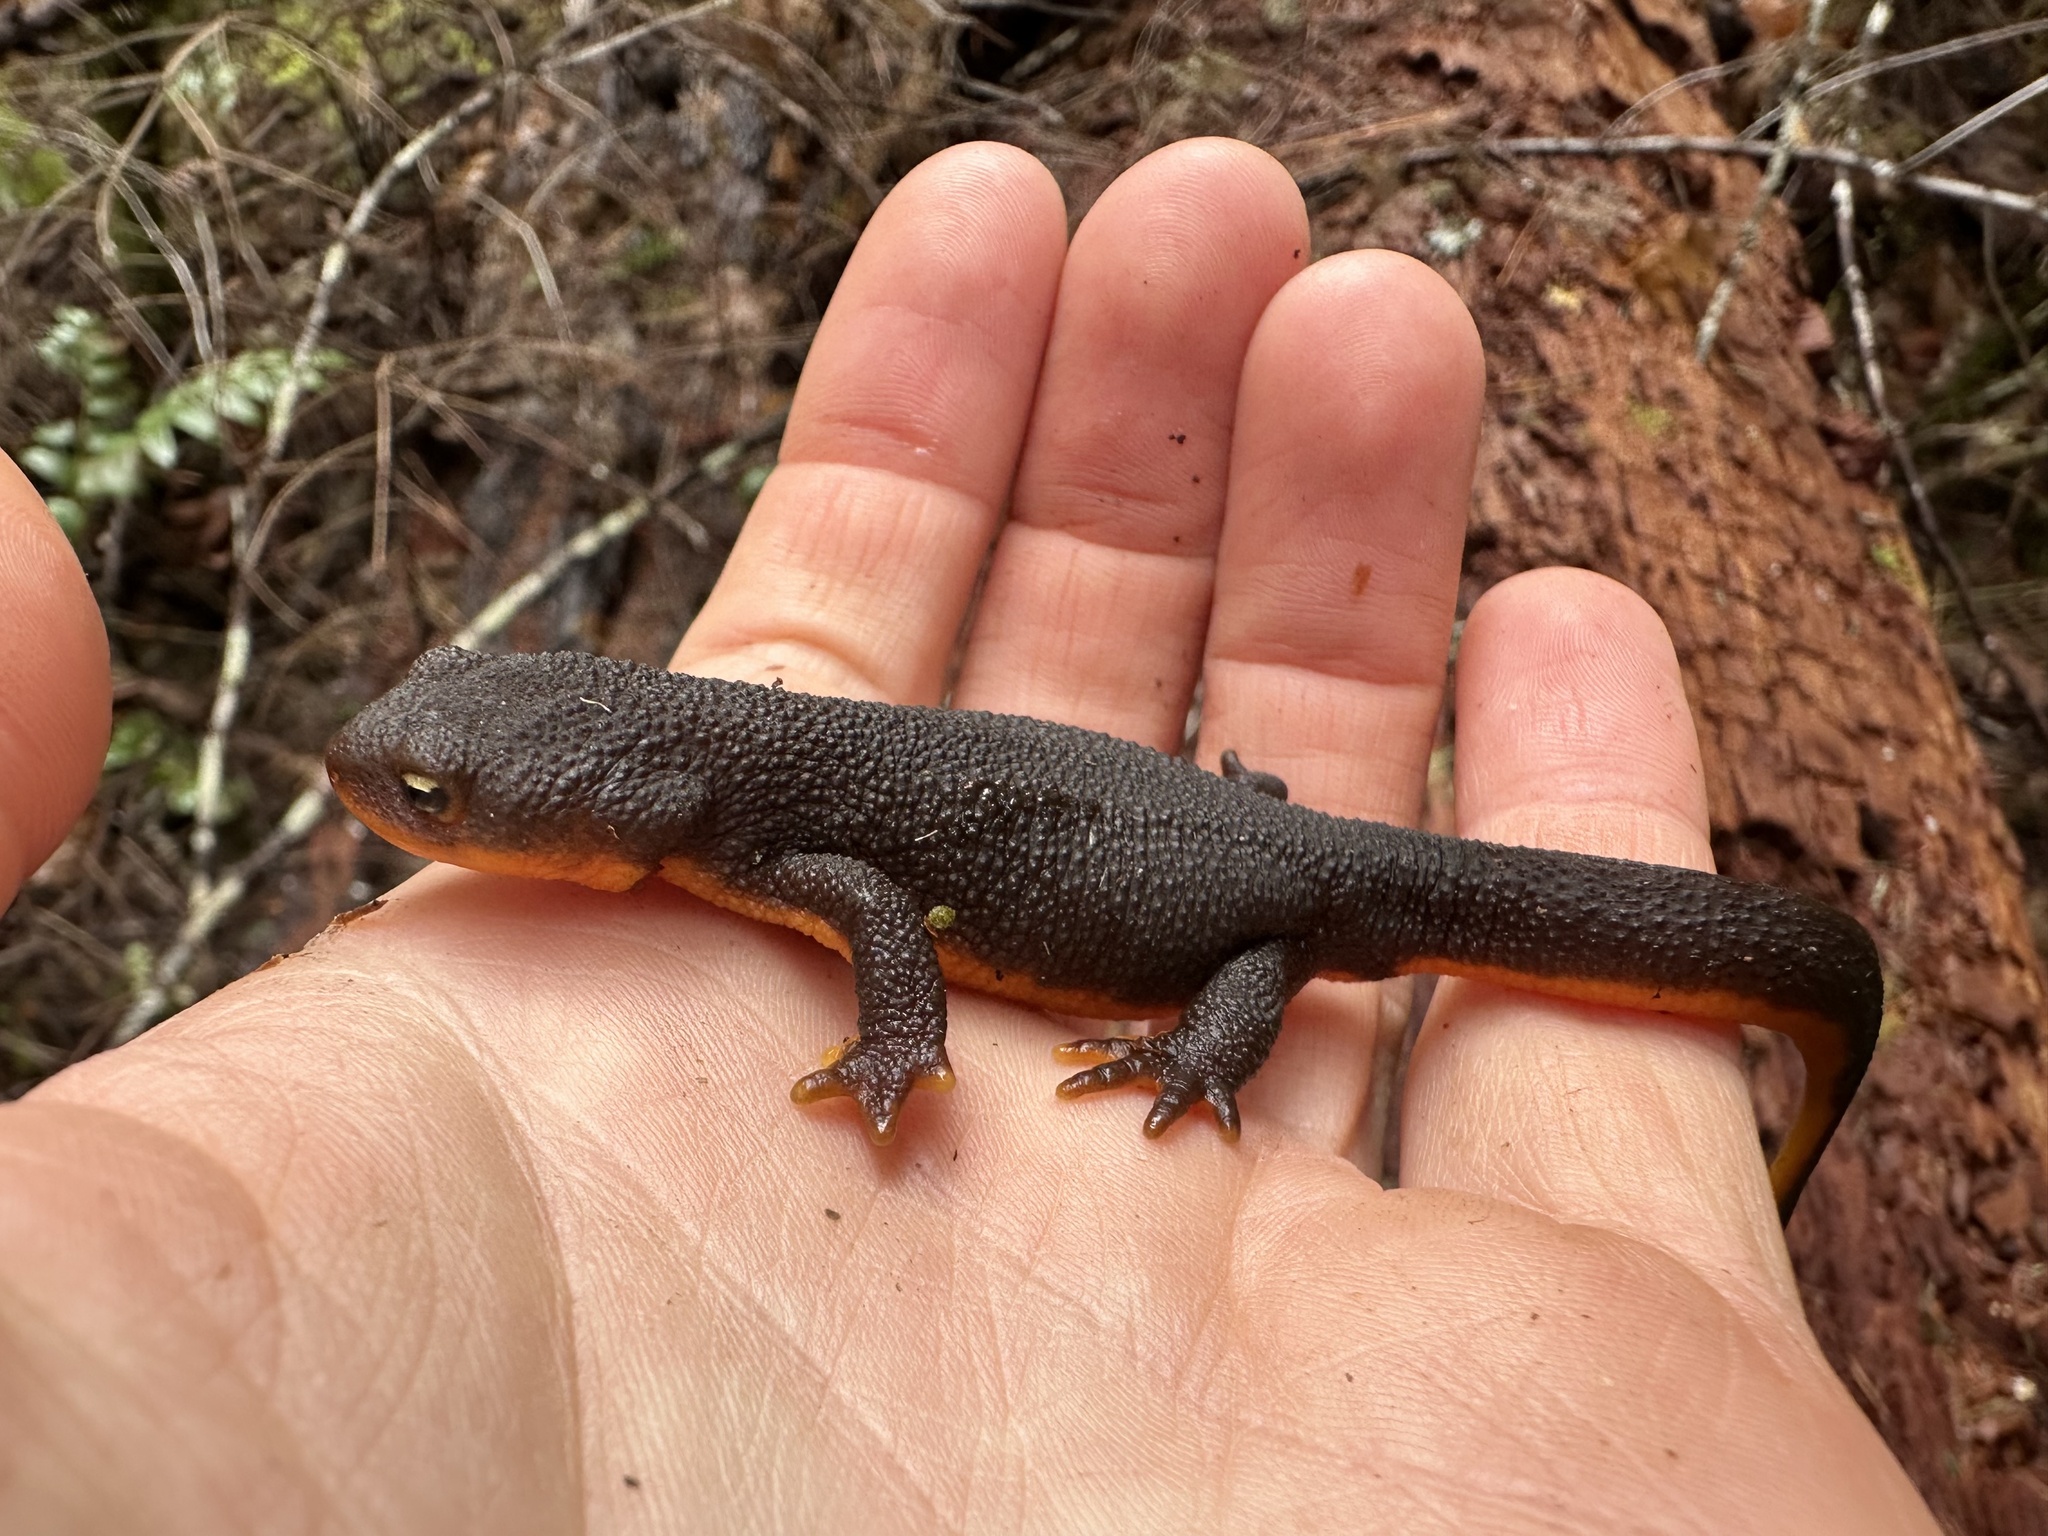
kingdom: Animalia
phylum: Chordata
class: Amphibia
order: Caudata
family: Salamandridae
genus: Taricha
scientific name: Taricha granulosa
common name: Roughskin newt
